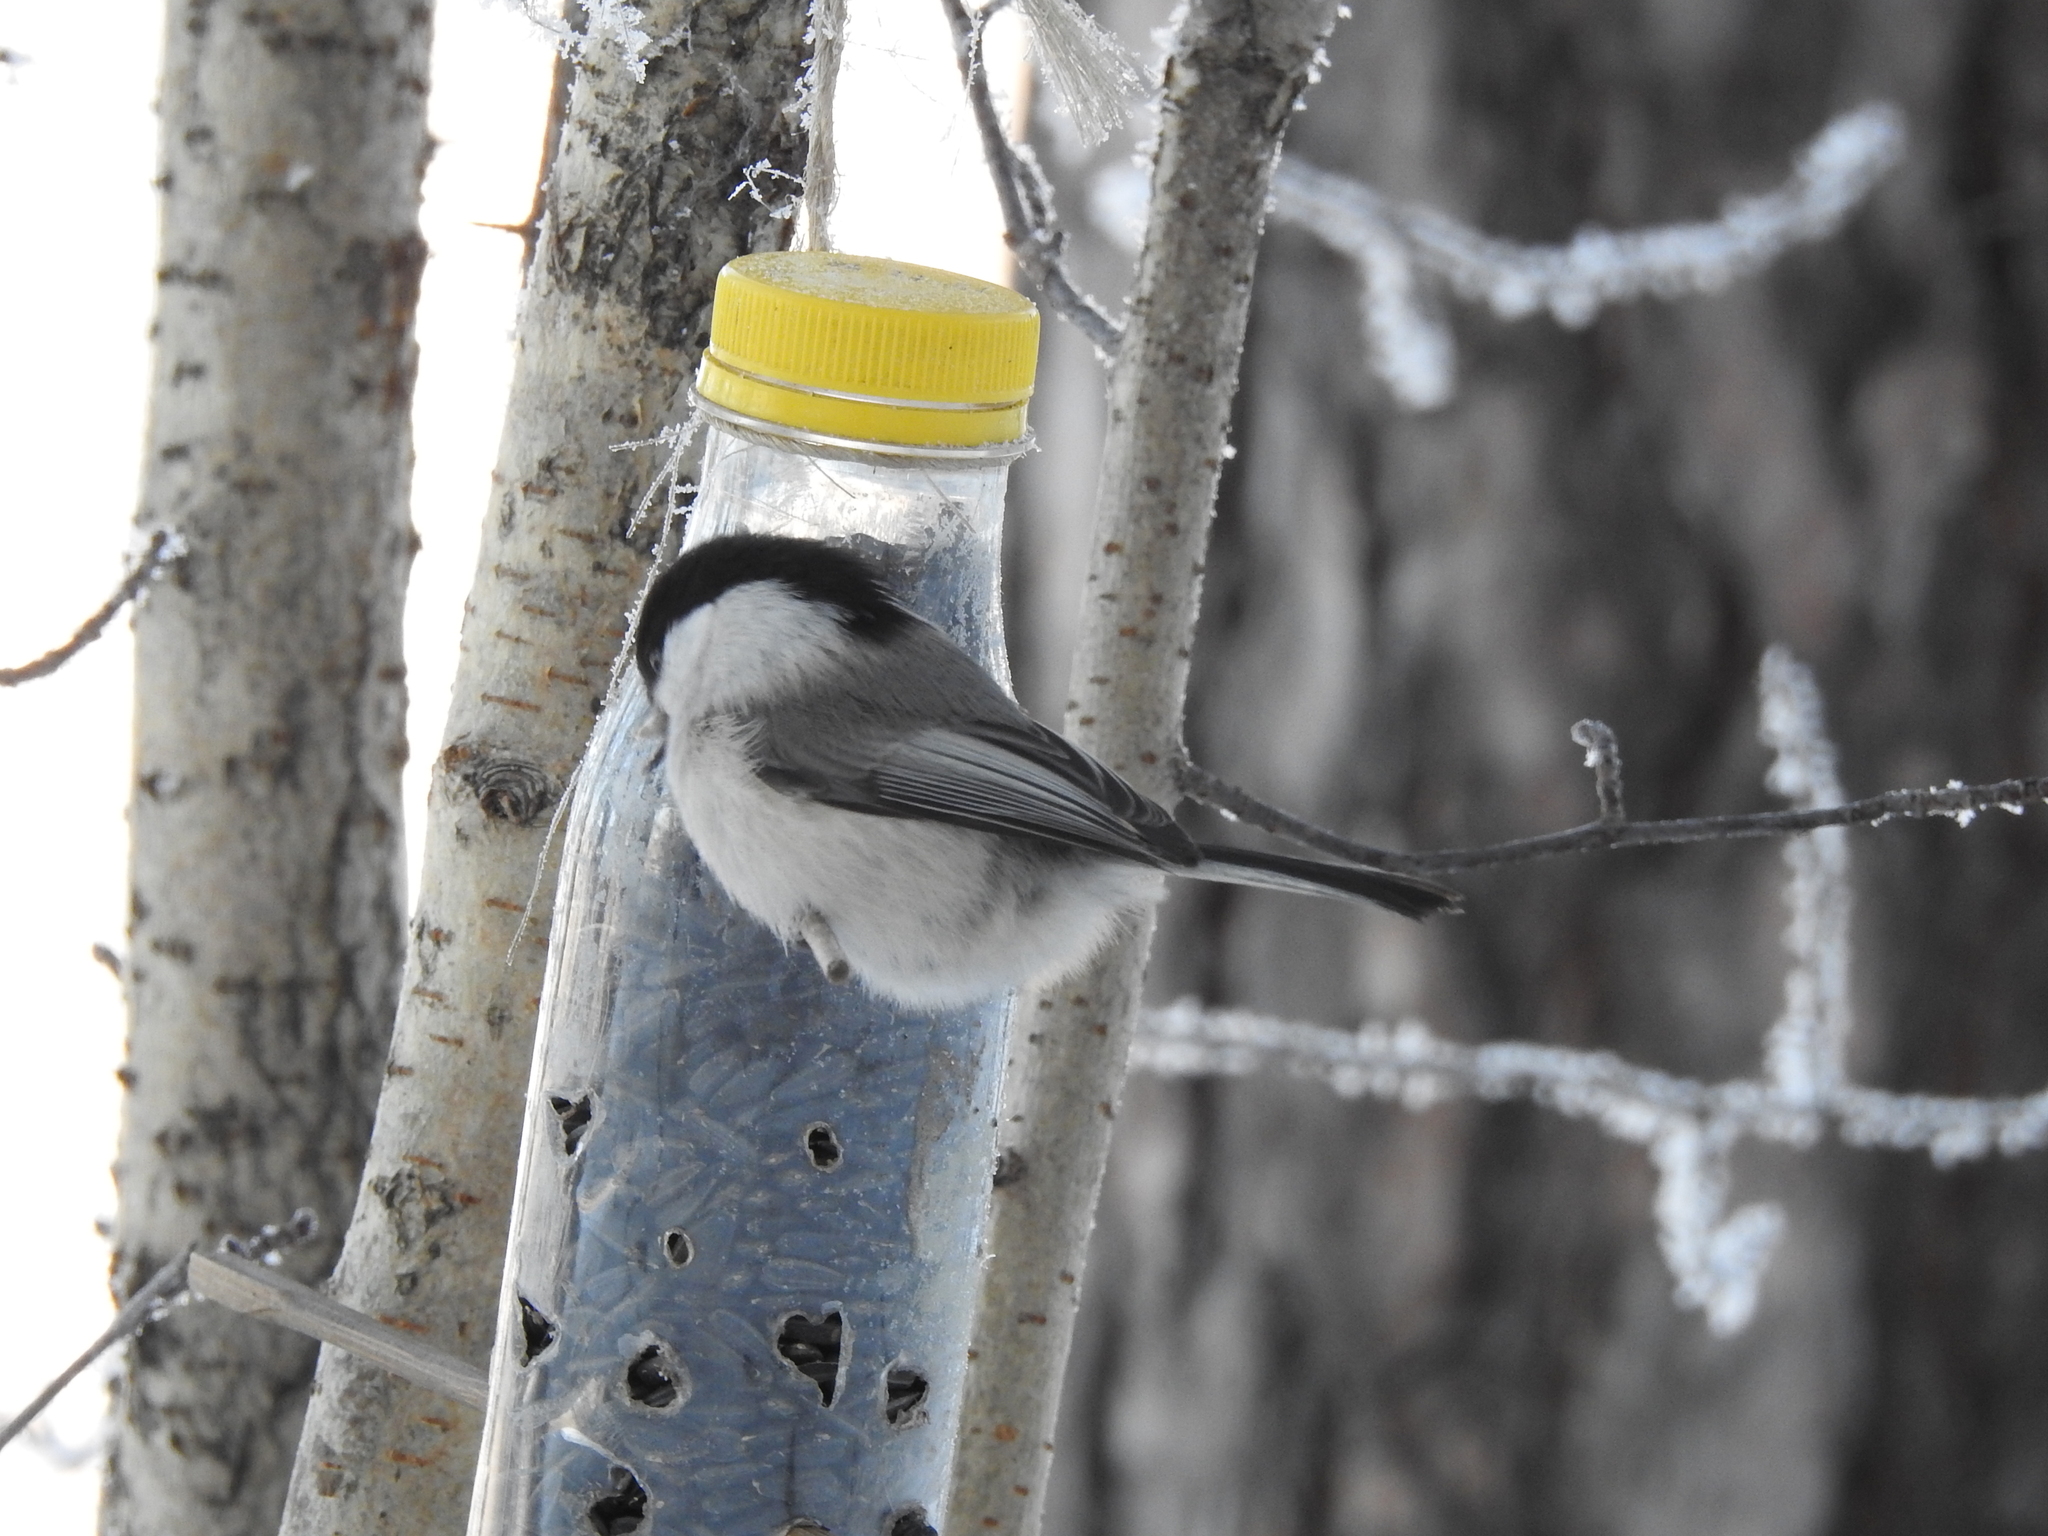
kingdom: Animalia
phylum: Chordata
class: Aves
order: Passeriformes
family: Paridae
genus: Poecile
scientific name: Poecile montanus
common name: Willow tit
